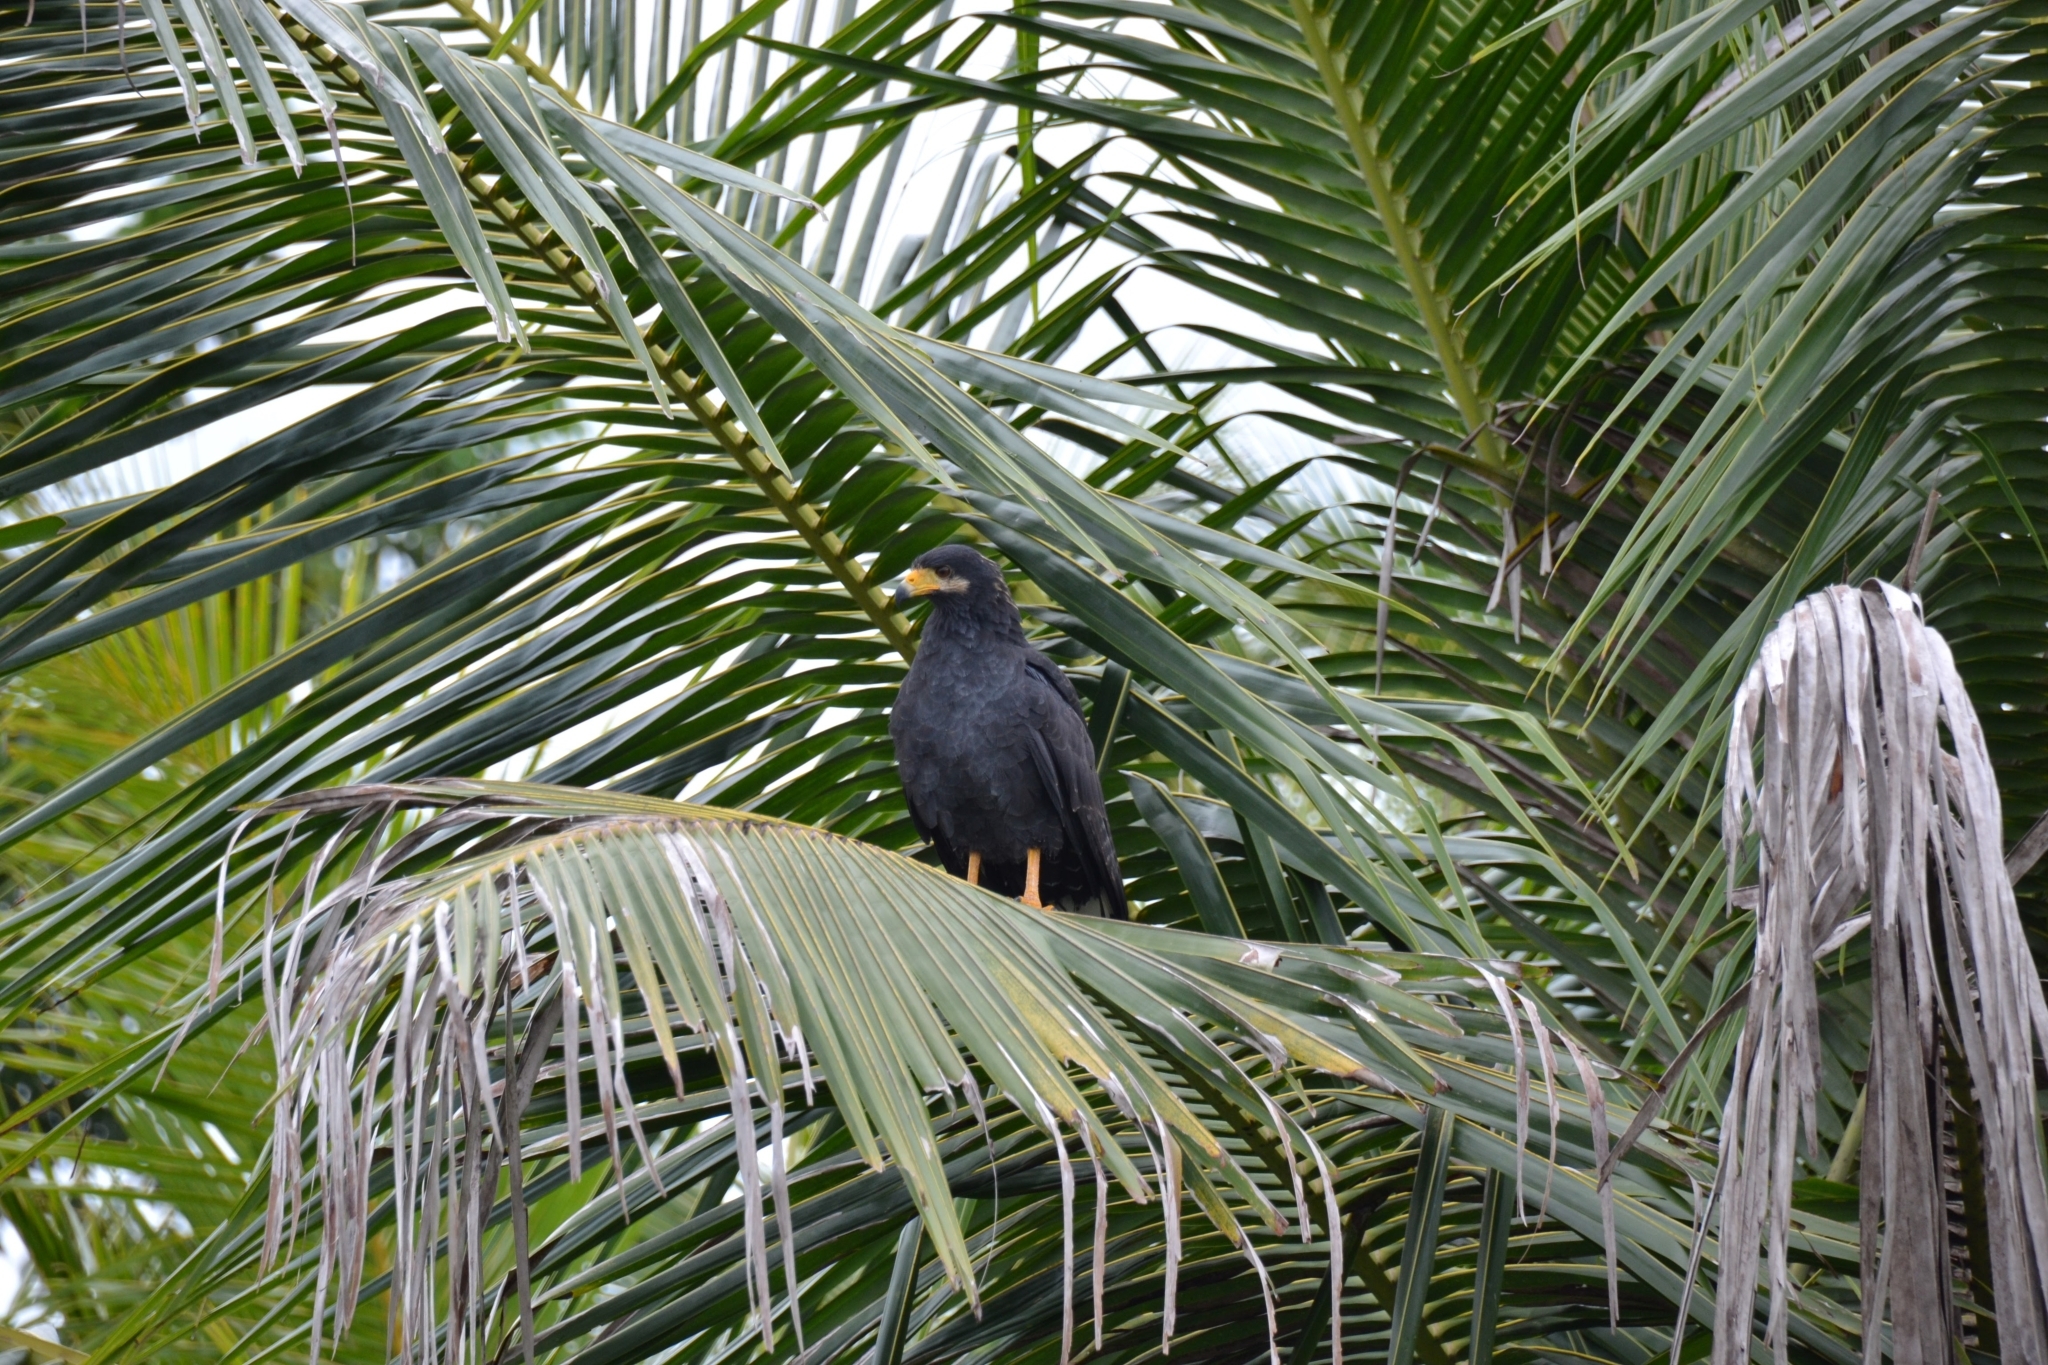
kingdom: Animalia
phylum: Chordata
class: Aves
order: Accipitriformes
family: Accipitridae
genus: Buteogallus
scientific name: Buteogallus anthracinus
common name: Common black hawk
